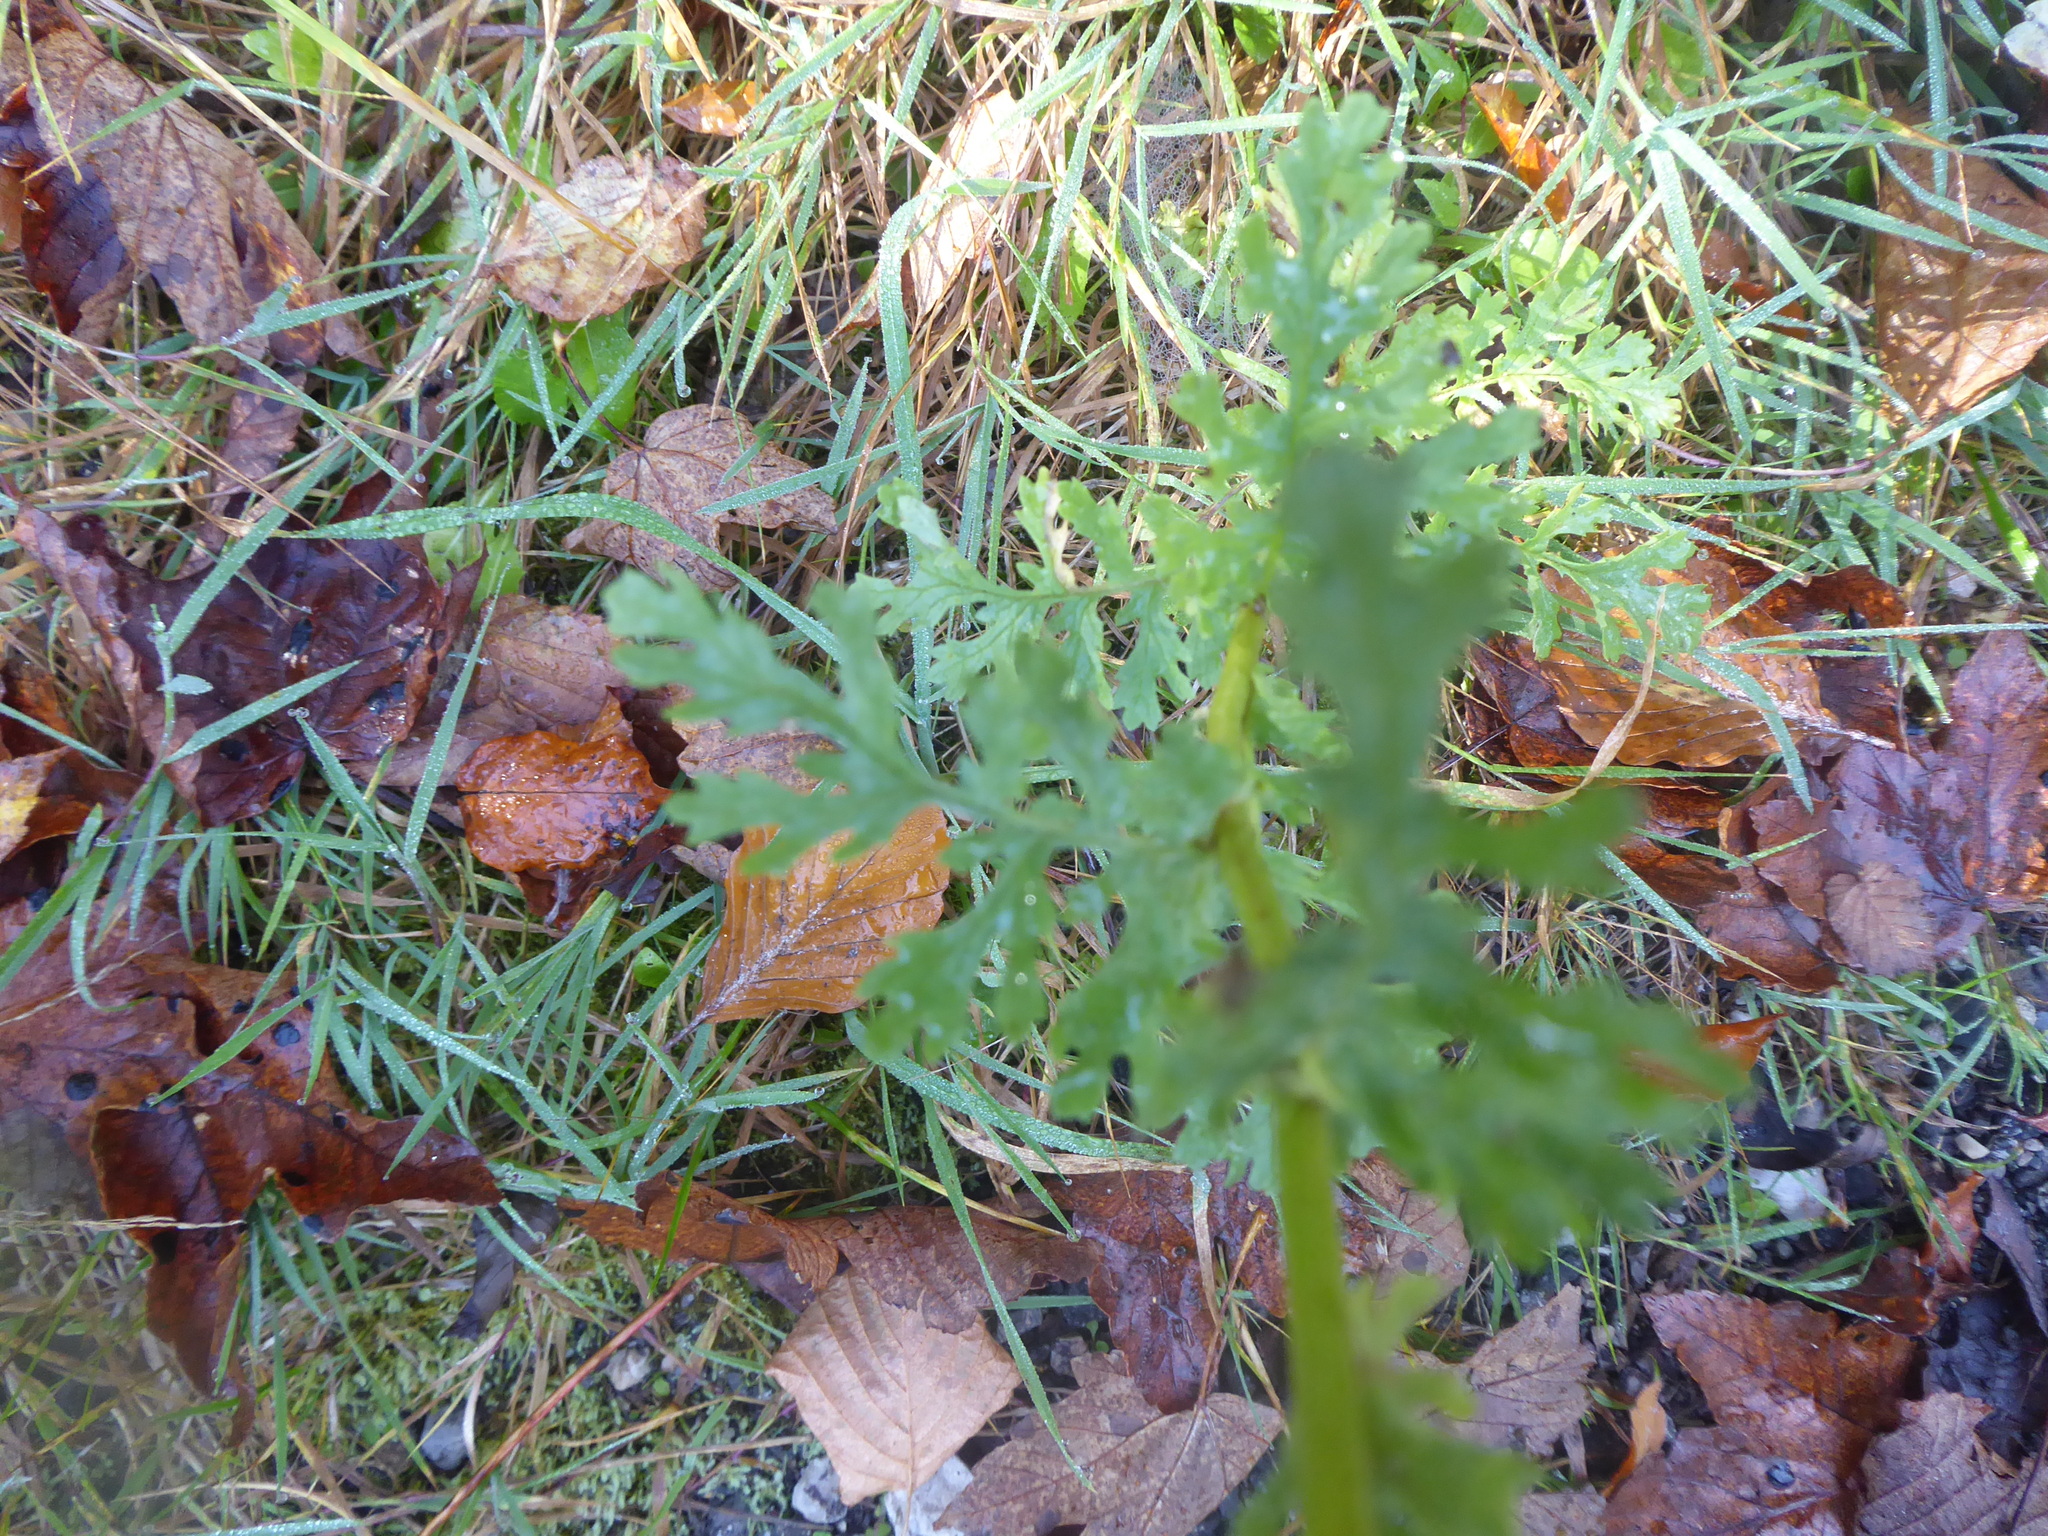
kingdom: Plantae
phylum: Tracheophyta
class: Magnoliopsida
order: Asterales
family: Asteraceae
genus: Jacobaea
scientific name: Jacobaea vulgaris
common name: Stinking willie
